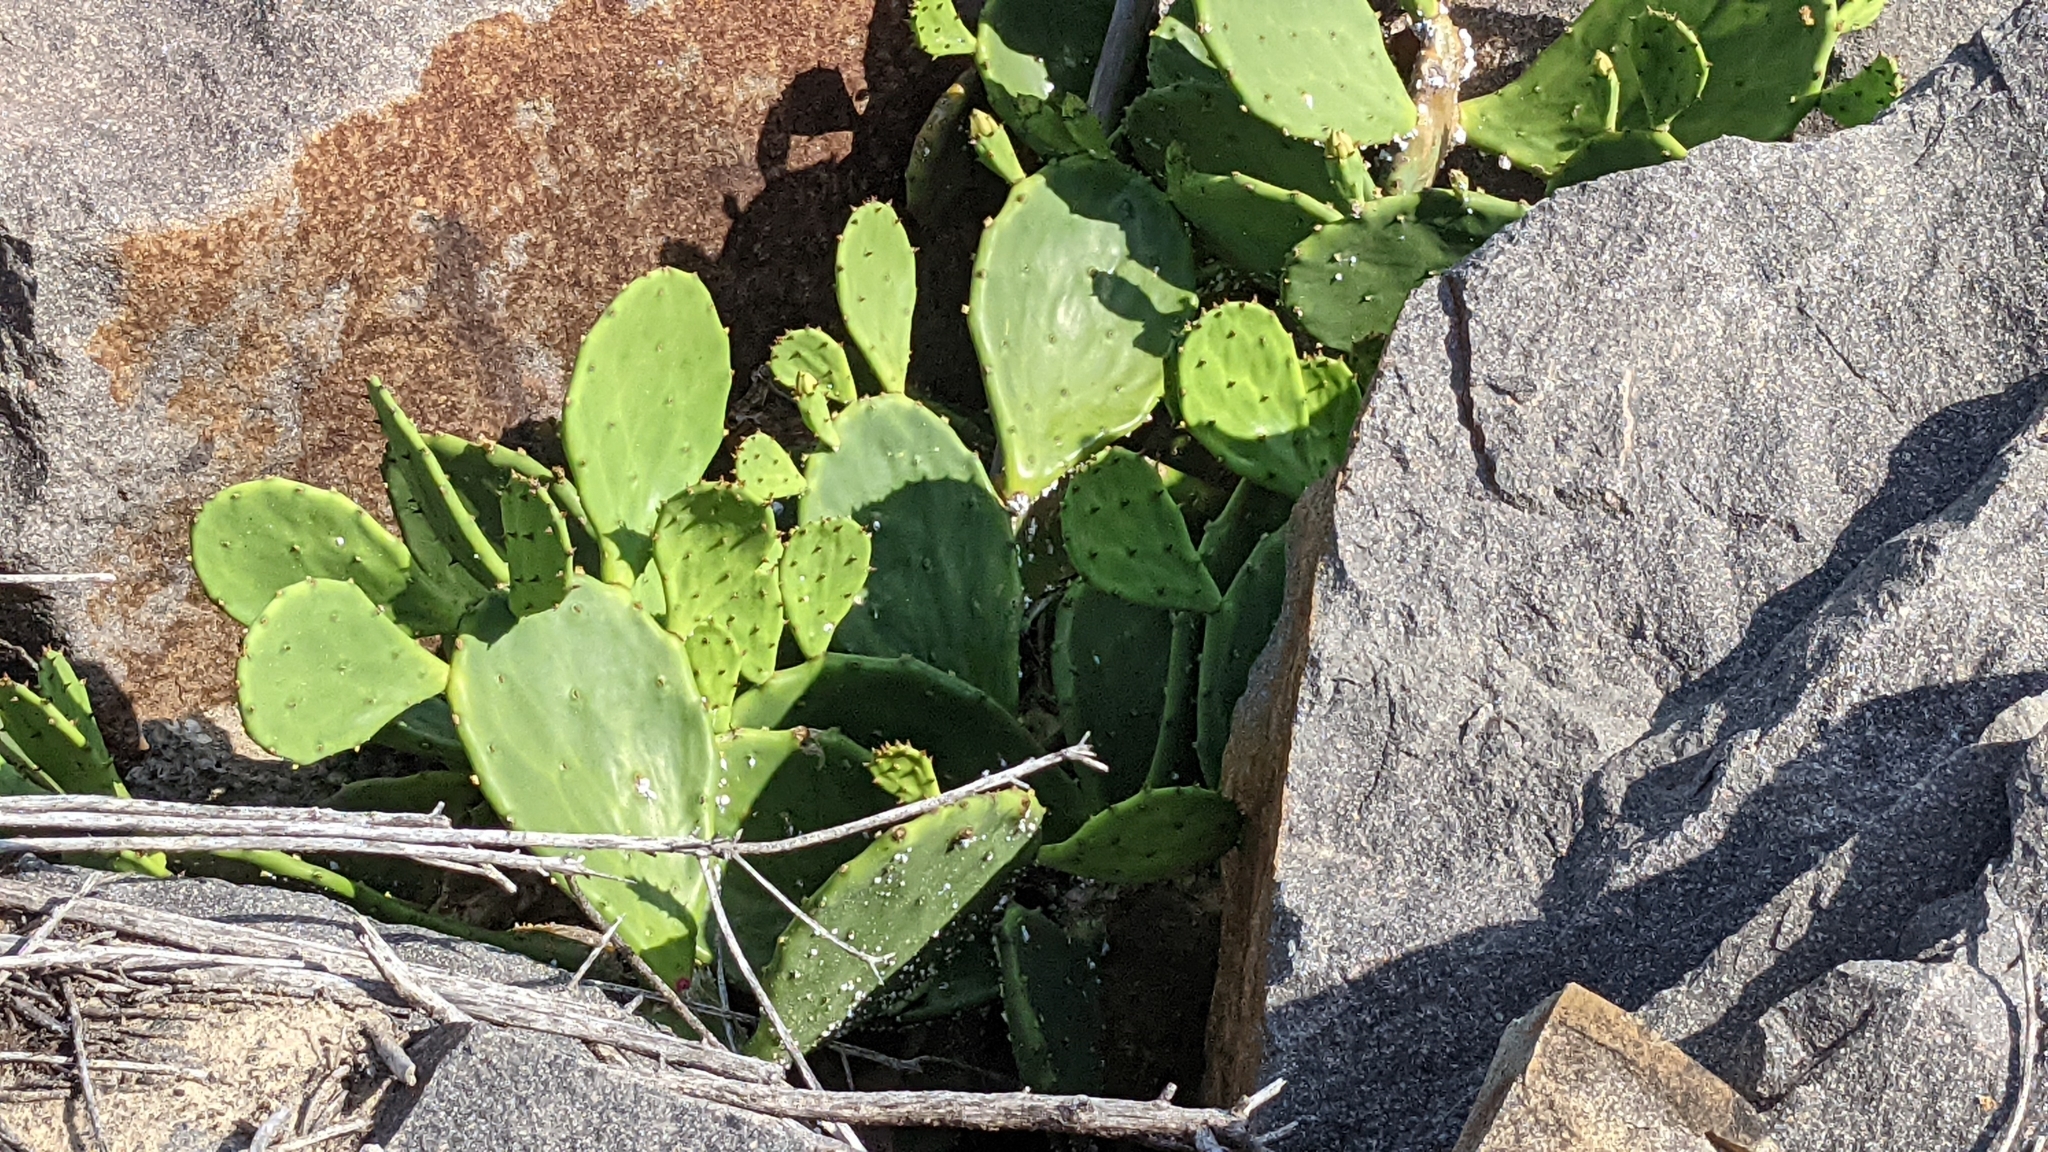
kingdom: Plantae
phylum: Tracheophyta
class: Magnoliopsida
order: Caryophyllales
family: Cactaceae
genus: Opuntia
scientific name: Opuntia stricta
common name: Erect pricklypear
